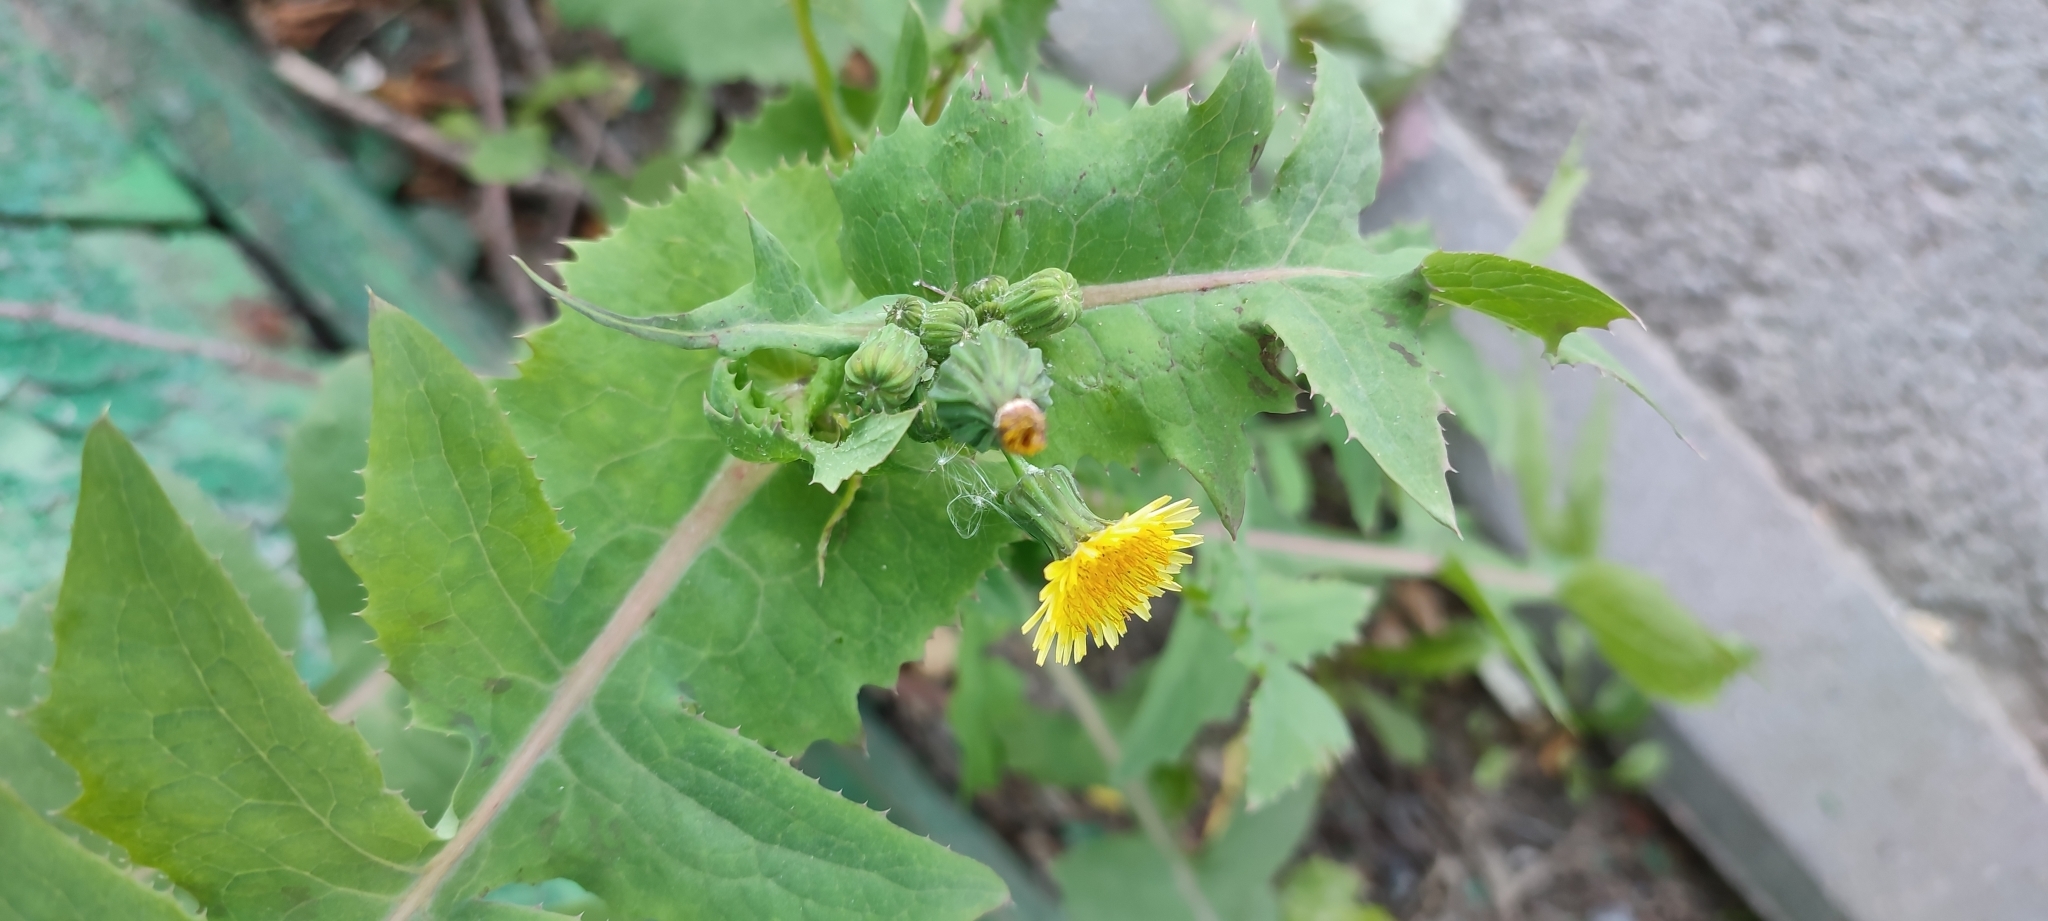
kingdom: Plantae
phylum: Tracheophyta
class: Magnoliopsida
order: Asterales
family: Asteraceae
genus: Sonchus
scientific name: Sonchus oleraceus
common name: Common sowthistle
